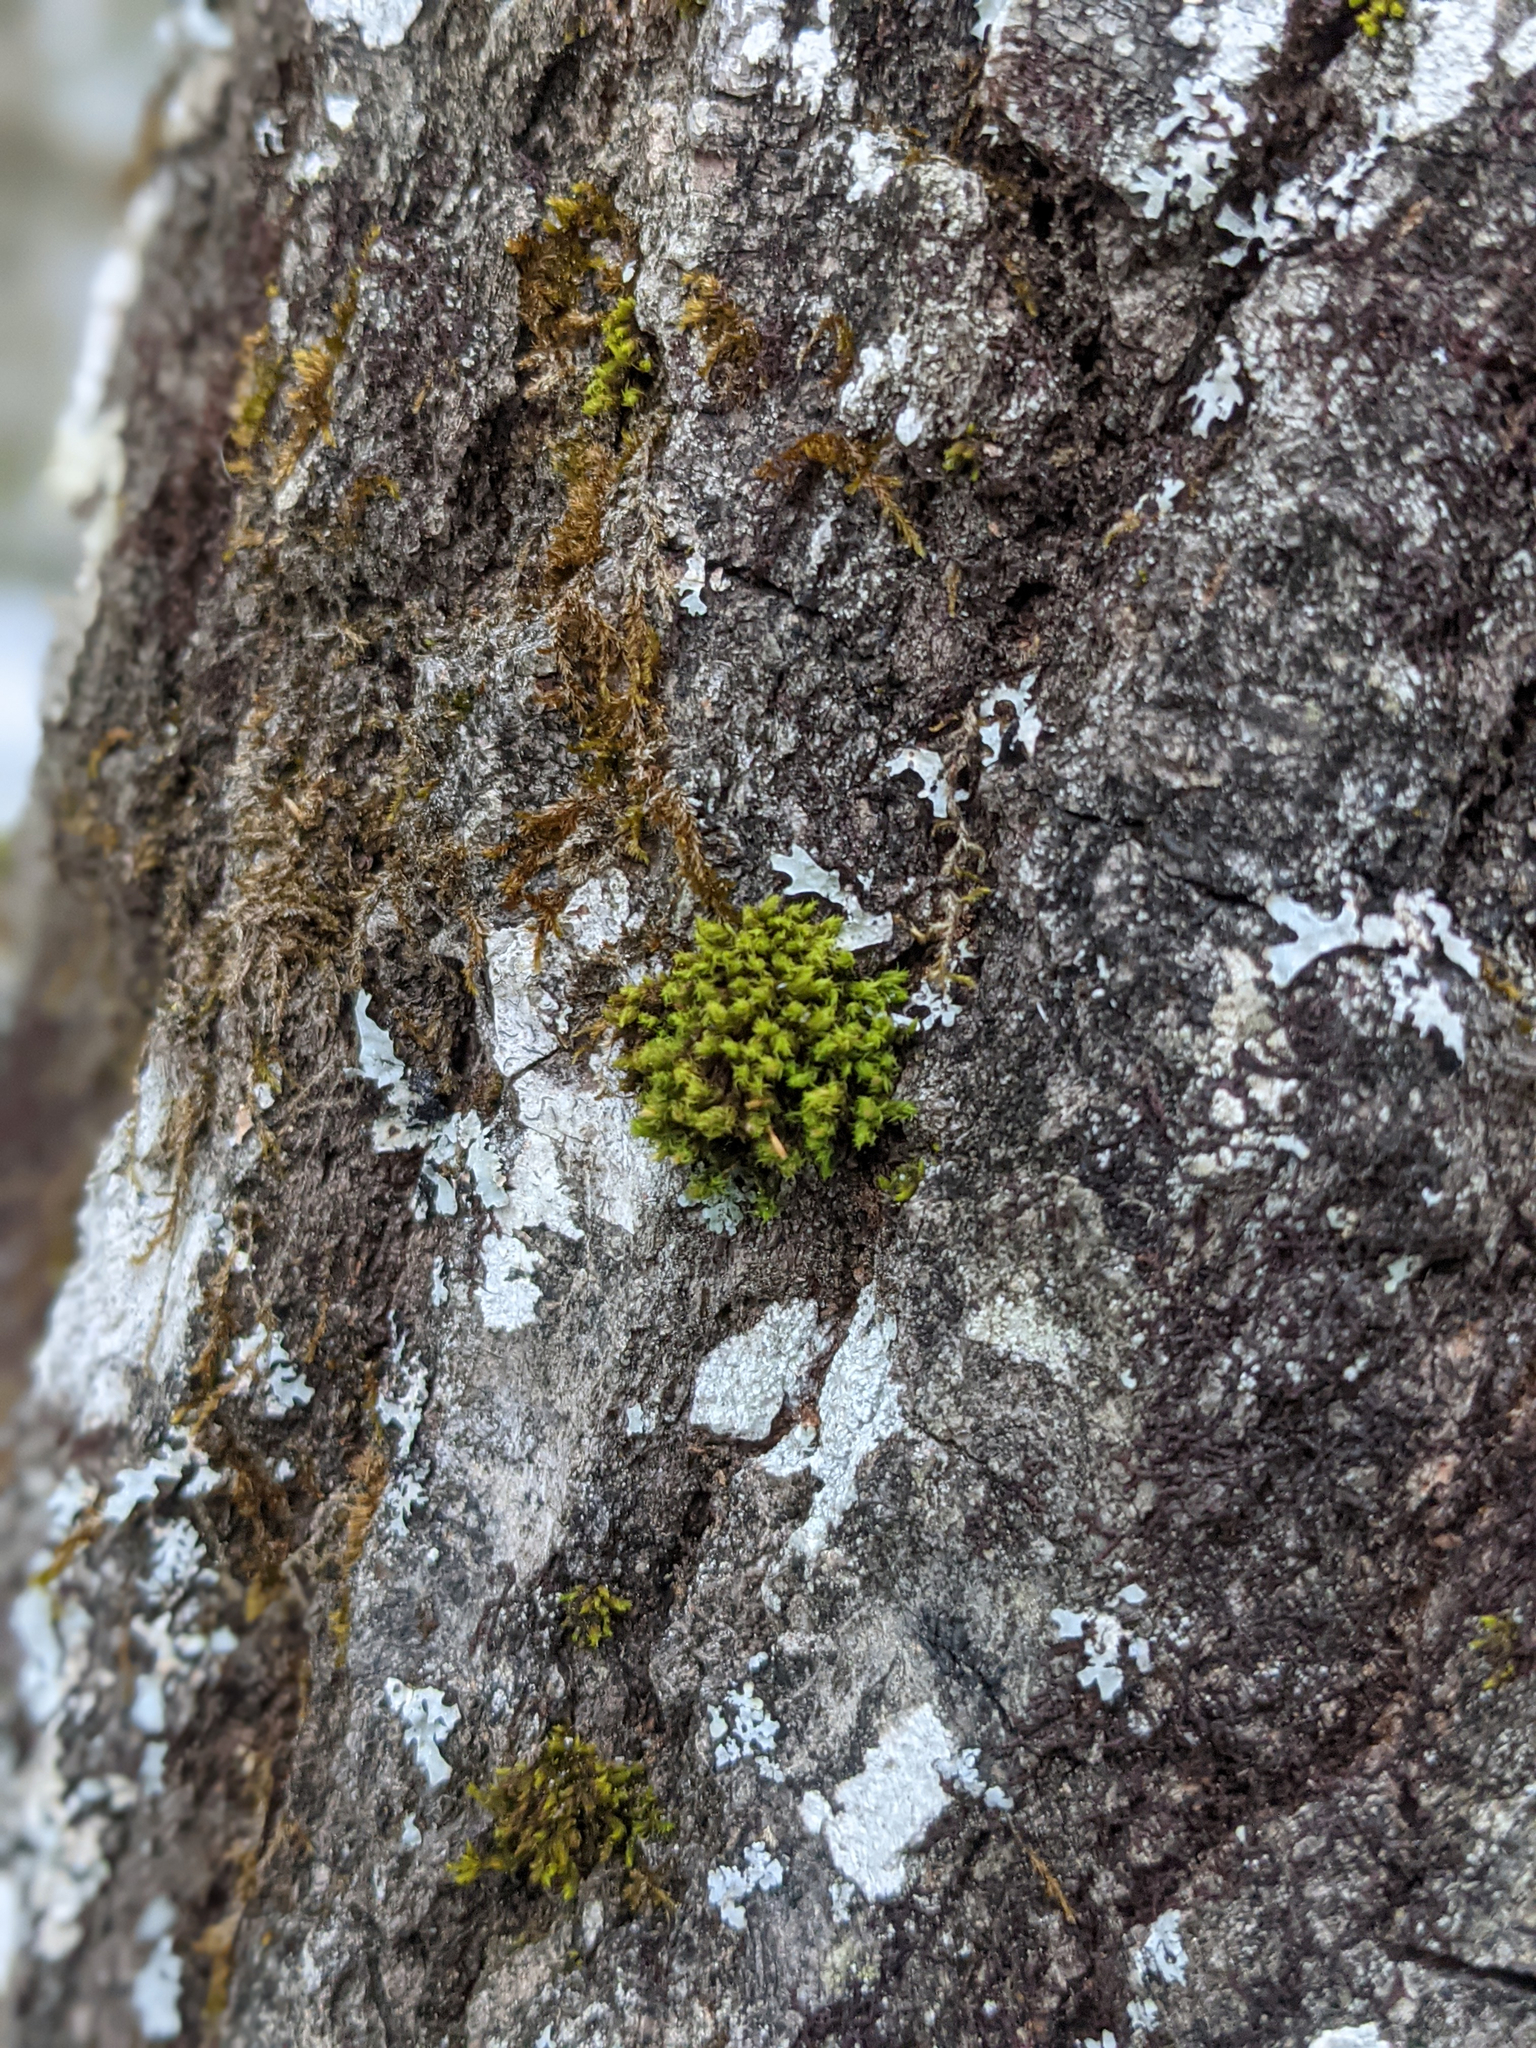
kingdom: Plantae
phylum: Bryophyta
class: Bryopsida
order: Orthotrichales
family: Orthotrichaceae
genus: Ulota
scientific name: Ulota crispa
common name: Crisped pincushion moss
